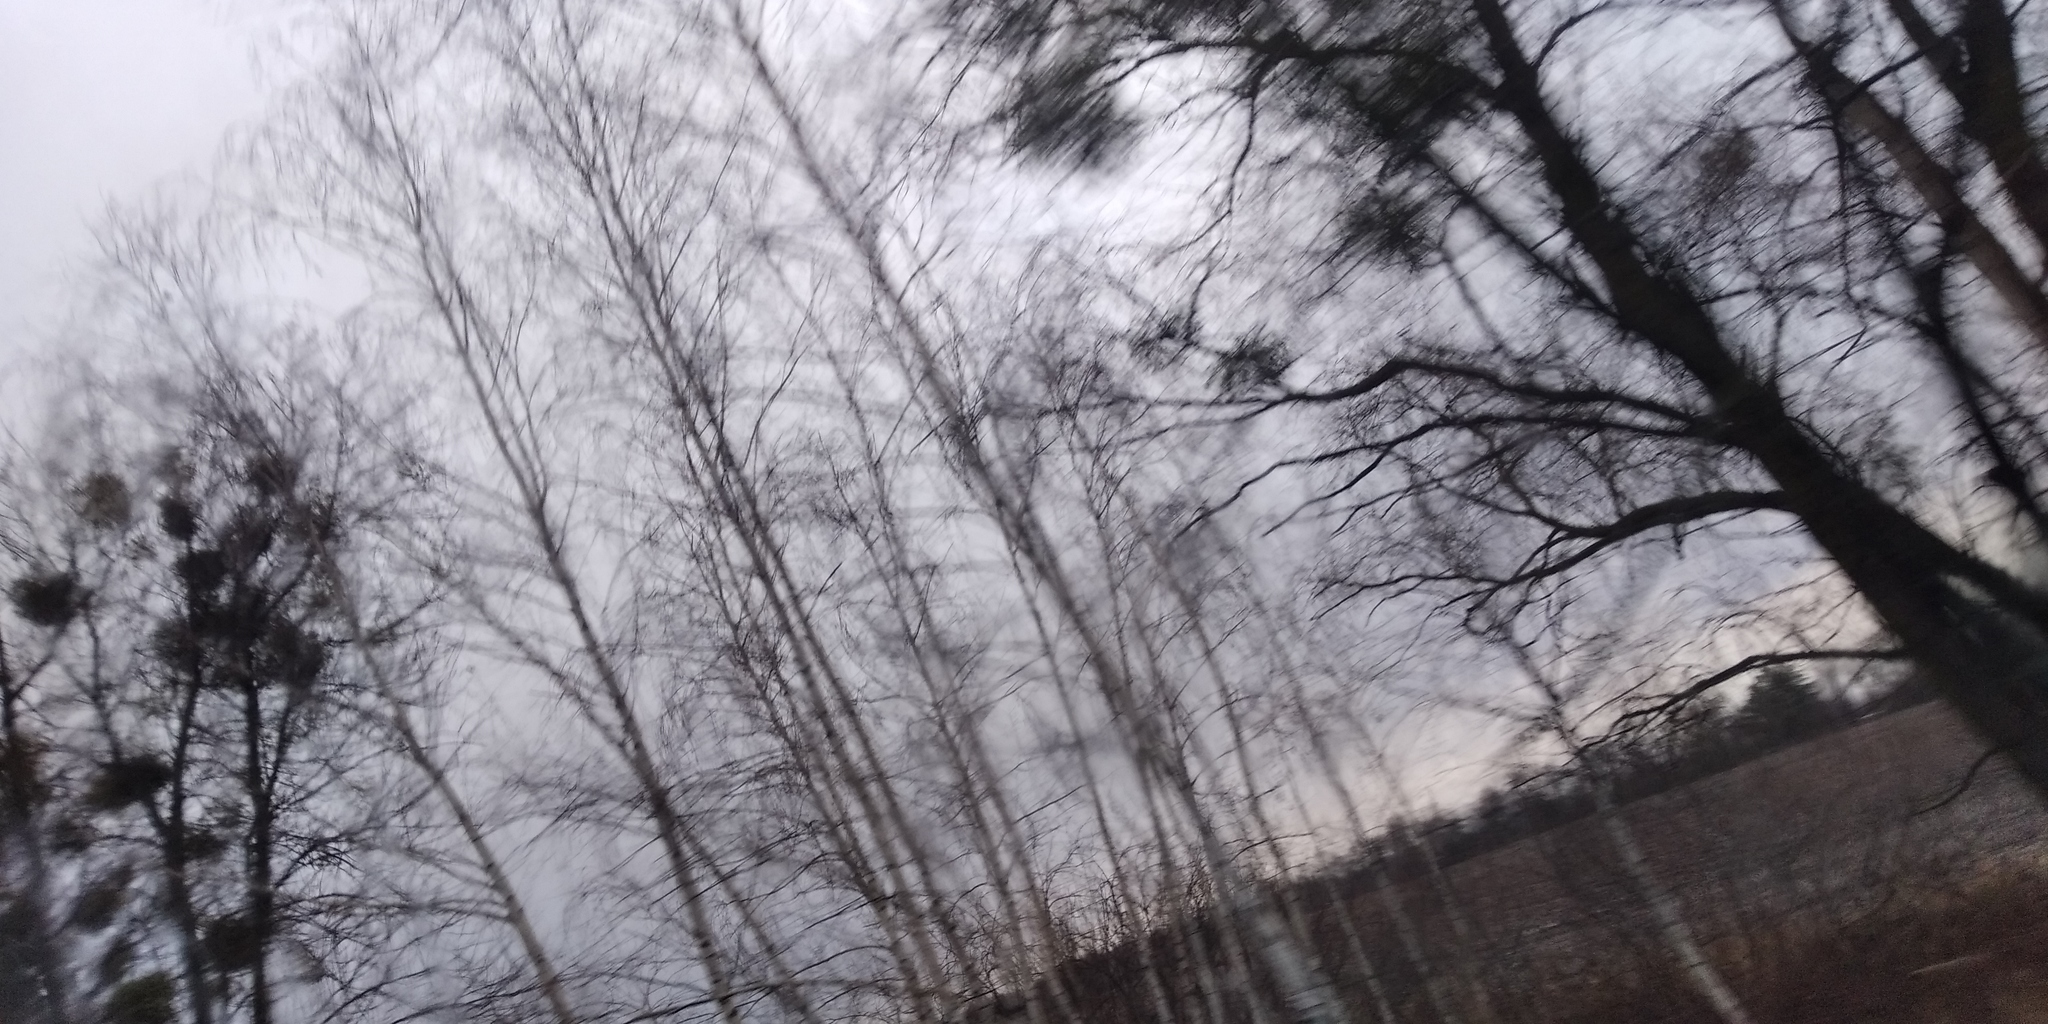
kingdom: Plantae
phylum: Tracheophyta
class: Magnoliopsida
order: Santalales
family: Viscaceae
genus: Viscum
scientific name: Viscum album
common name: Mistletoe
